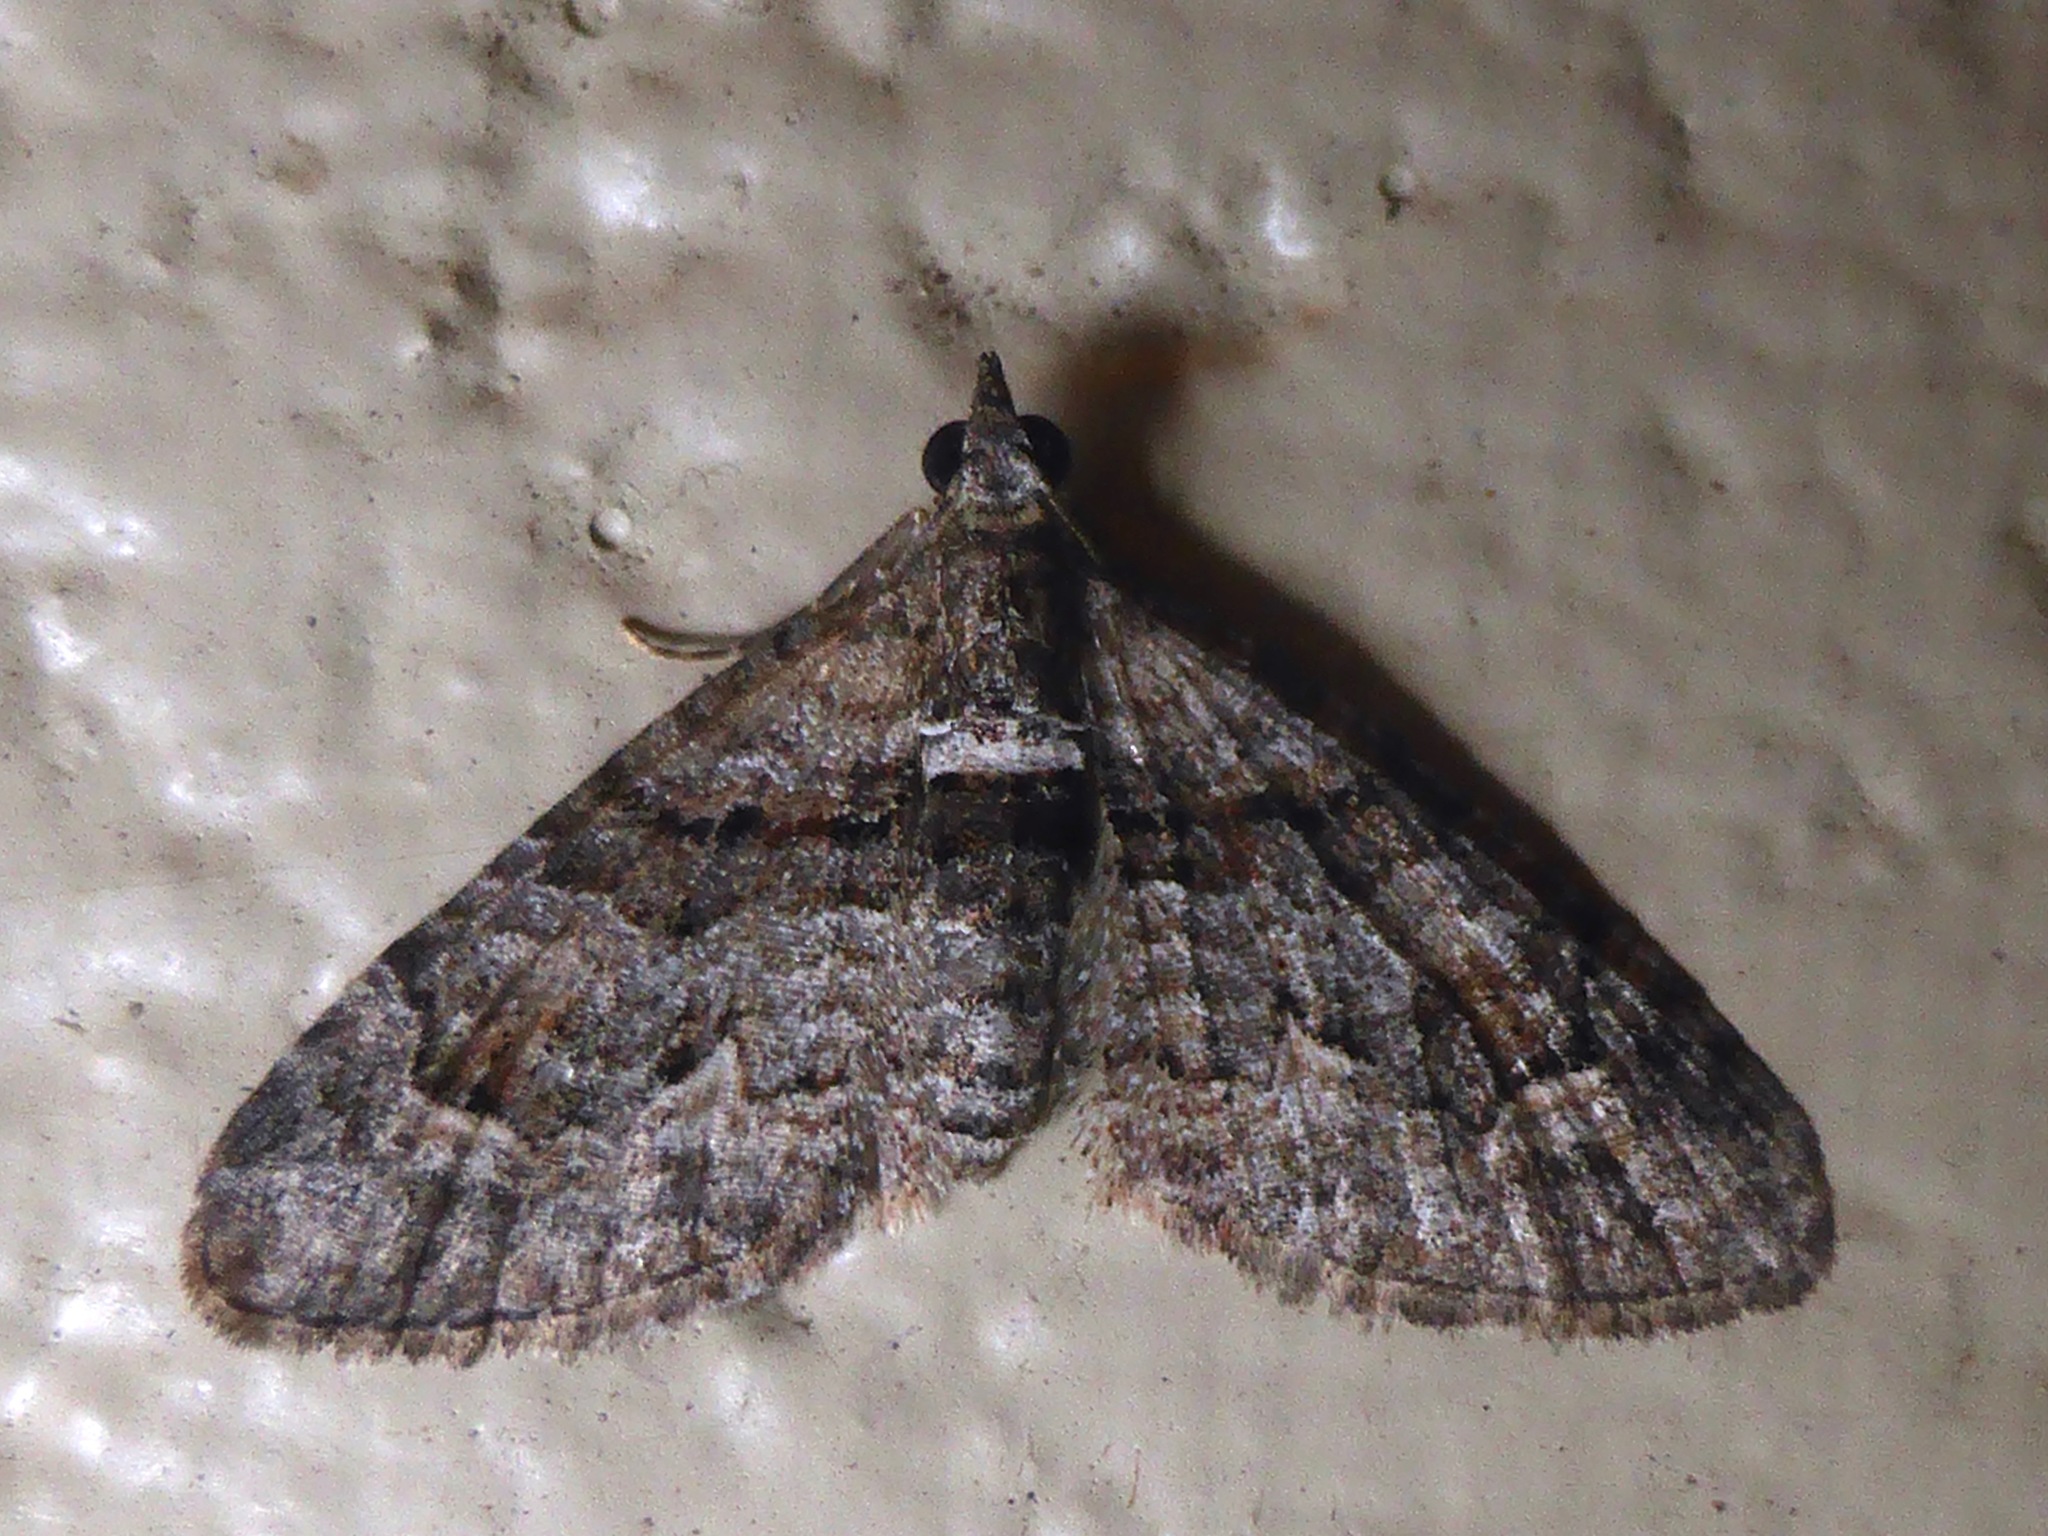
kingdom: Animalia
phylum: Arthropoda
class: Insecta
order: Lepidoptera
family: Geometridae
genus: Phrissogonus
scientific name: Phrissogonus laticostata
